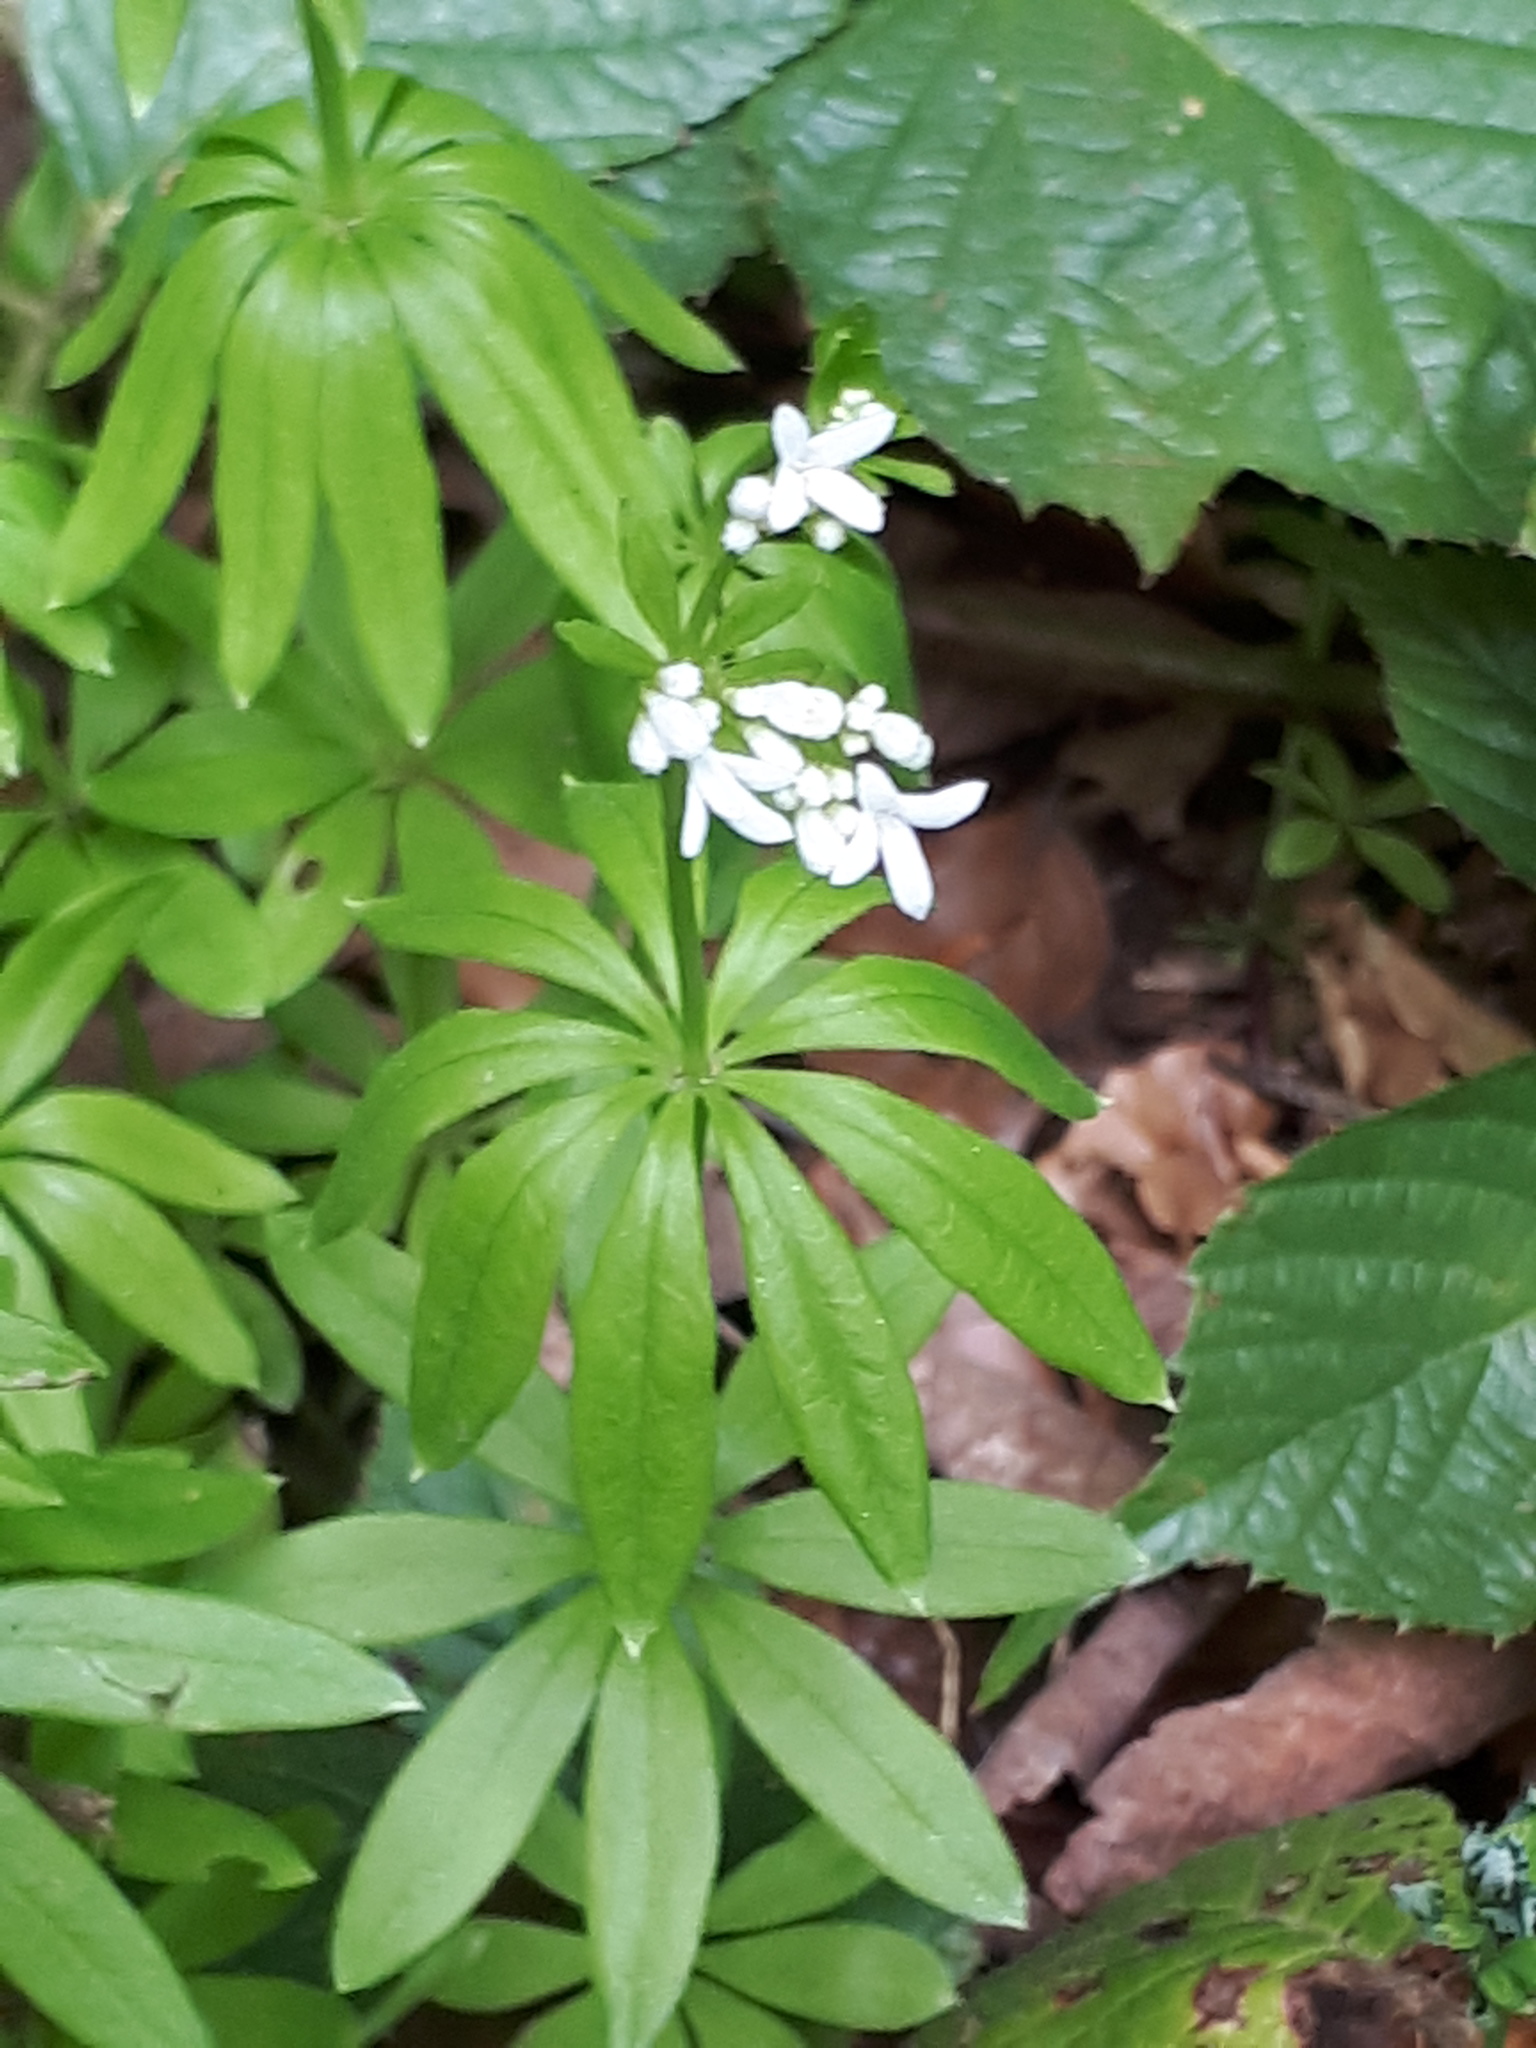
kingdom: Plantae
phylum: Tracheophyta
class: Magnoliopsida
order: Gentianales
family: Rubiaceae
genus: Galium
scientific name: Galium odoratum
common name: Sweet woodruff
